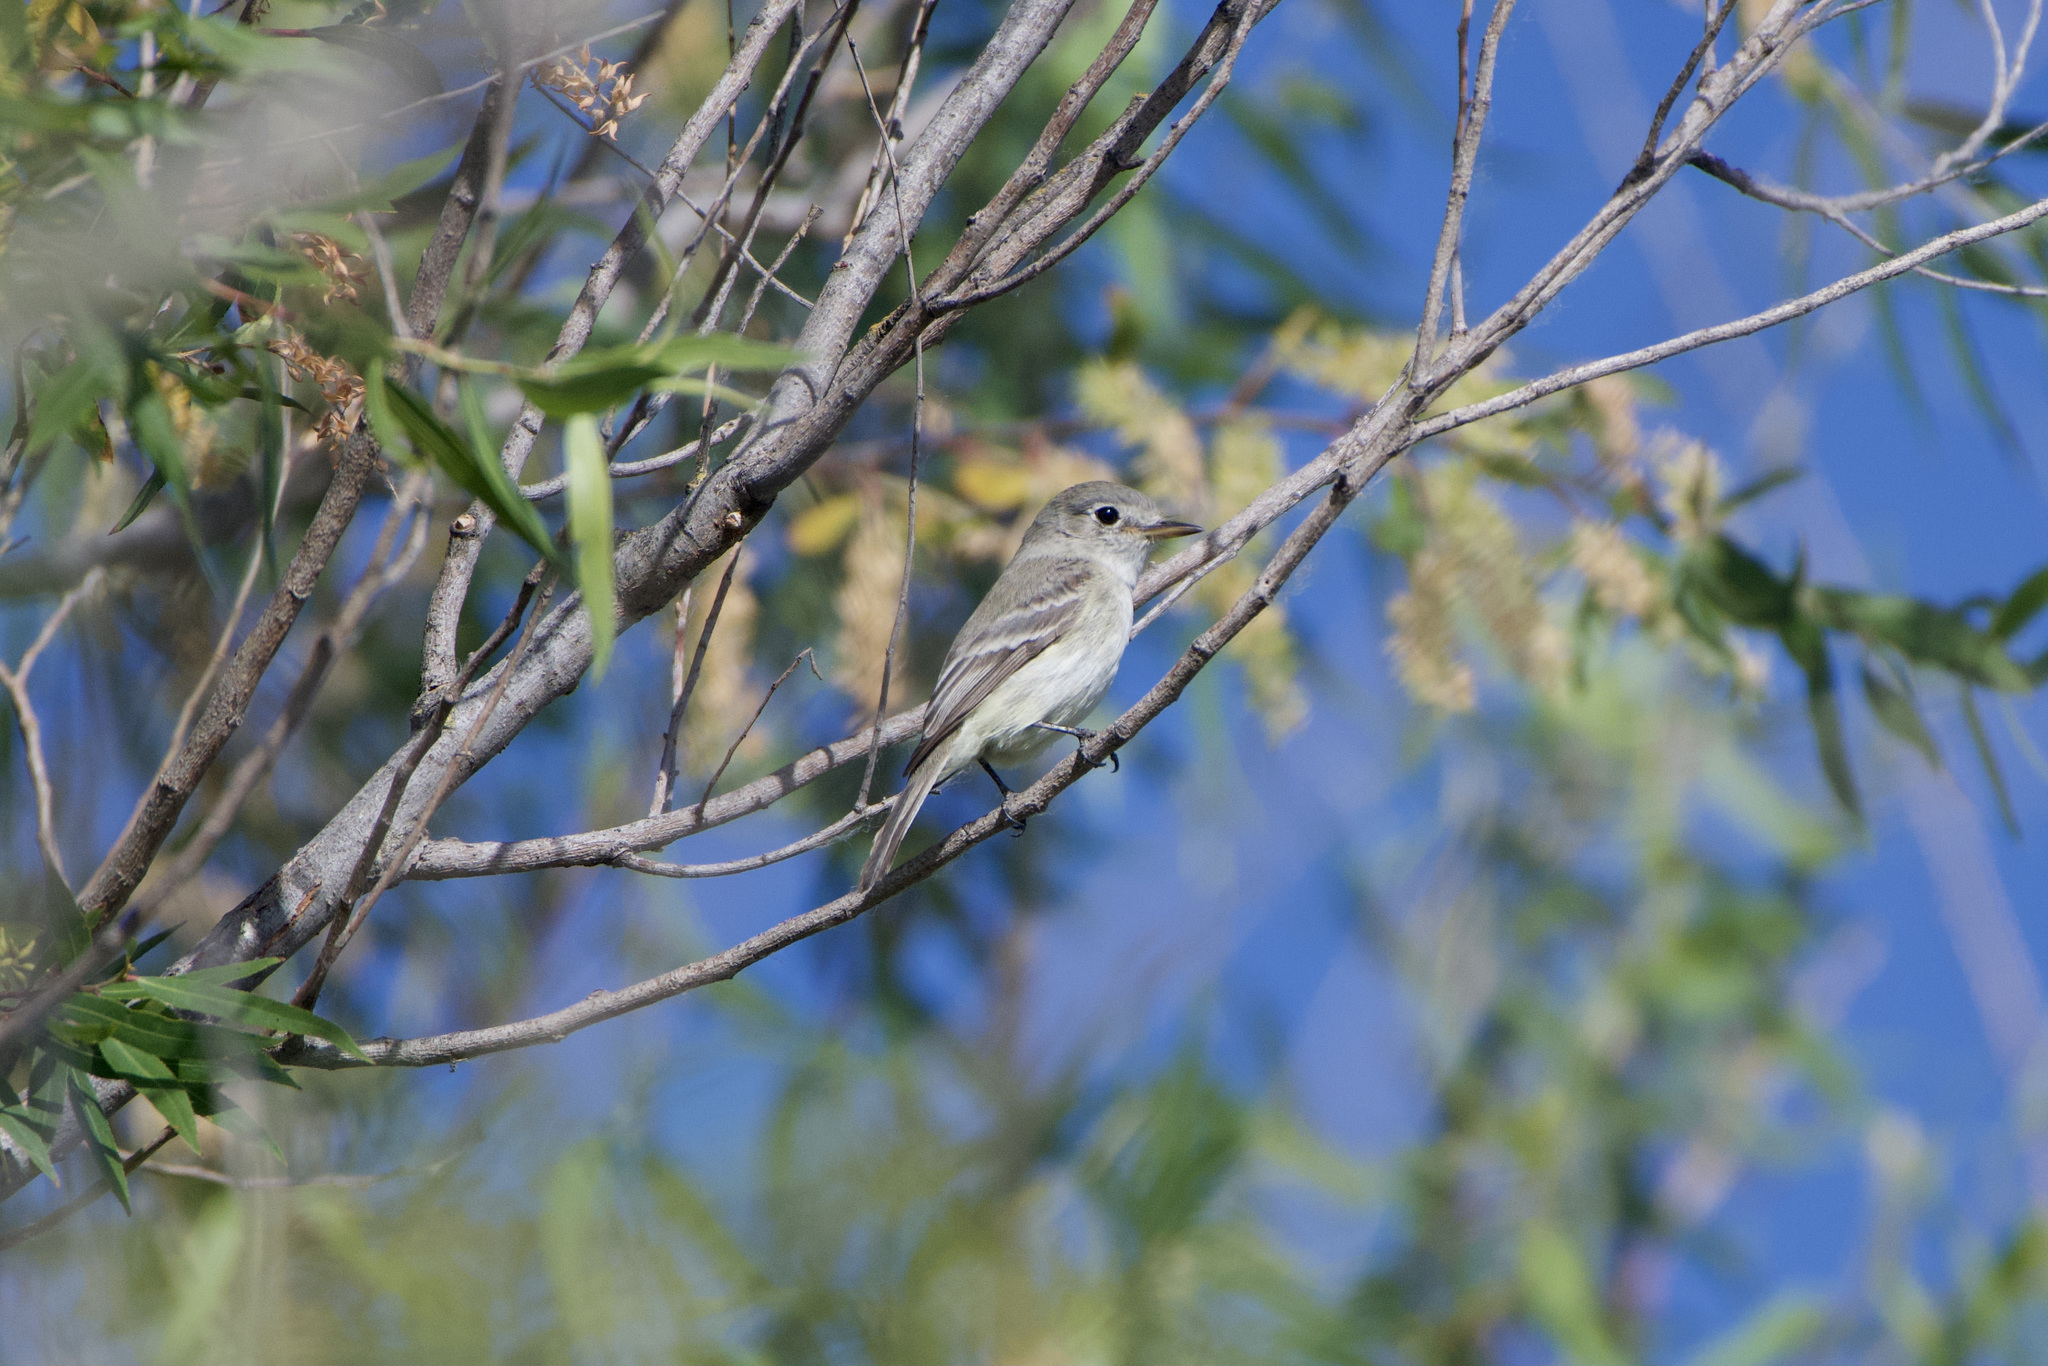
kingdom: Animalia
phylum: Chordata
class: Aves
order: Passeriformes
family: Tyrannidae
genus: Empidonax
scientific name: Empidonax wrightii
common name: Gray flycatcher
